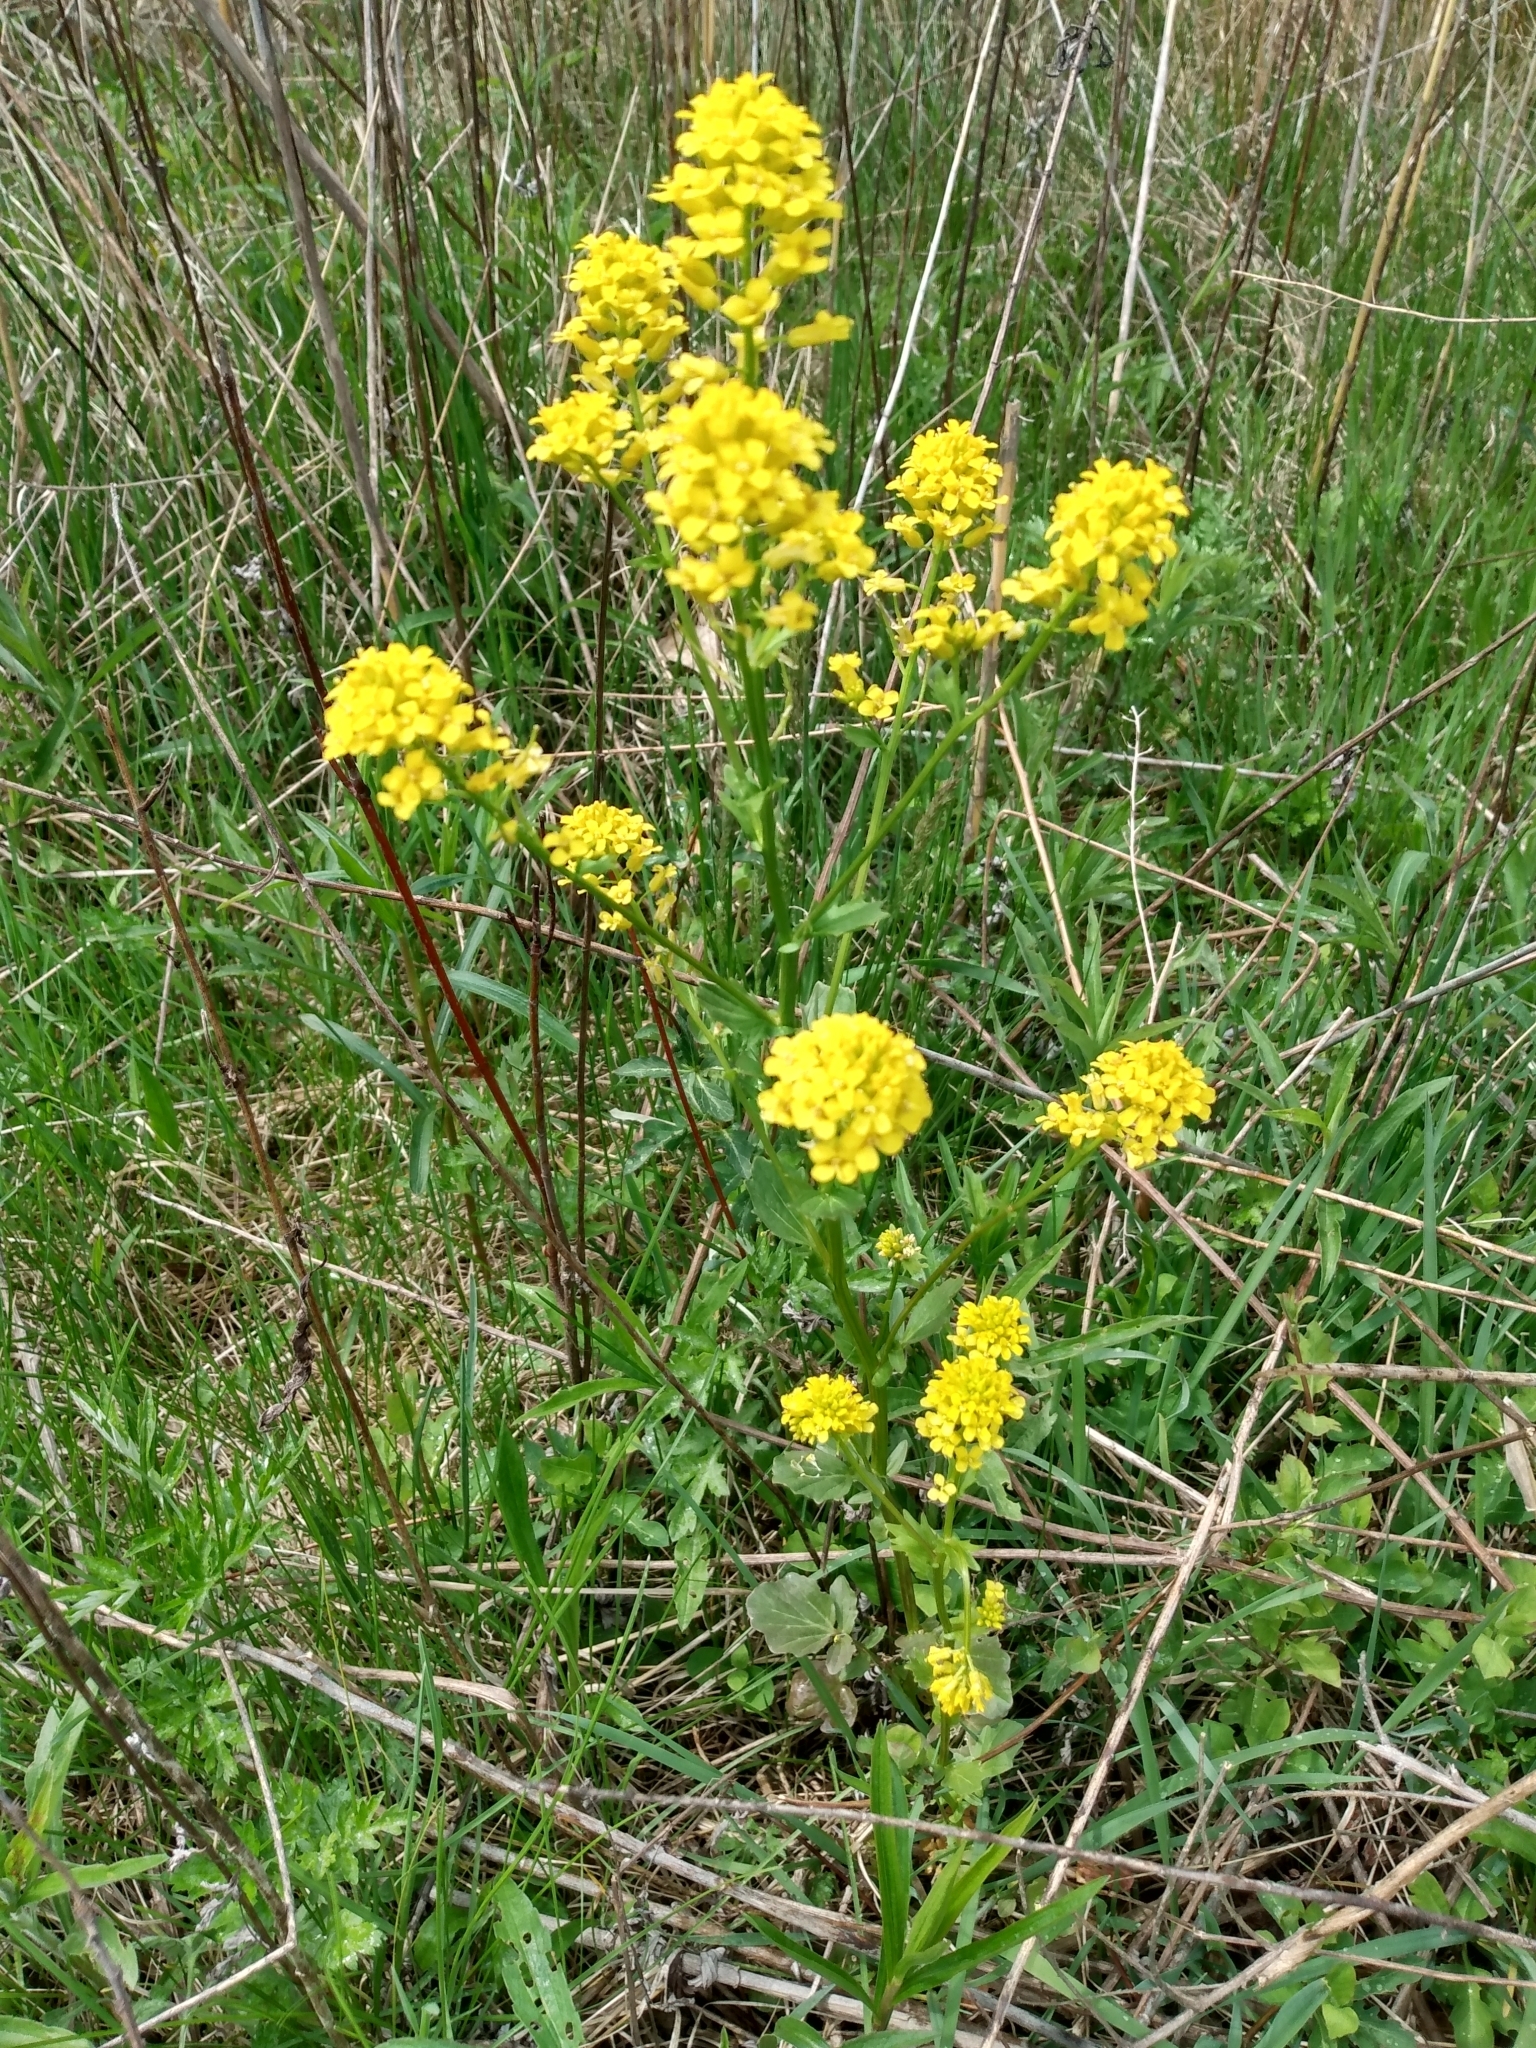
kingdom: Plantae
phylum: Tracheophyta
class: Magnoliopsida
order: Brassicales
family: Brassicaceae
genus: Barbarea
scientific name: Barbarea vulgaris
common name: Cressy-greens
